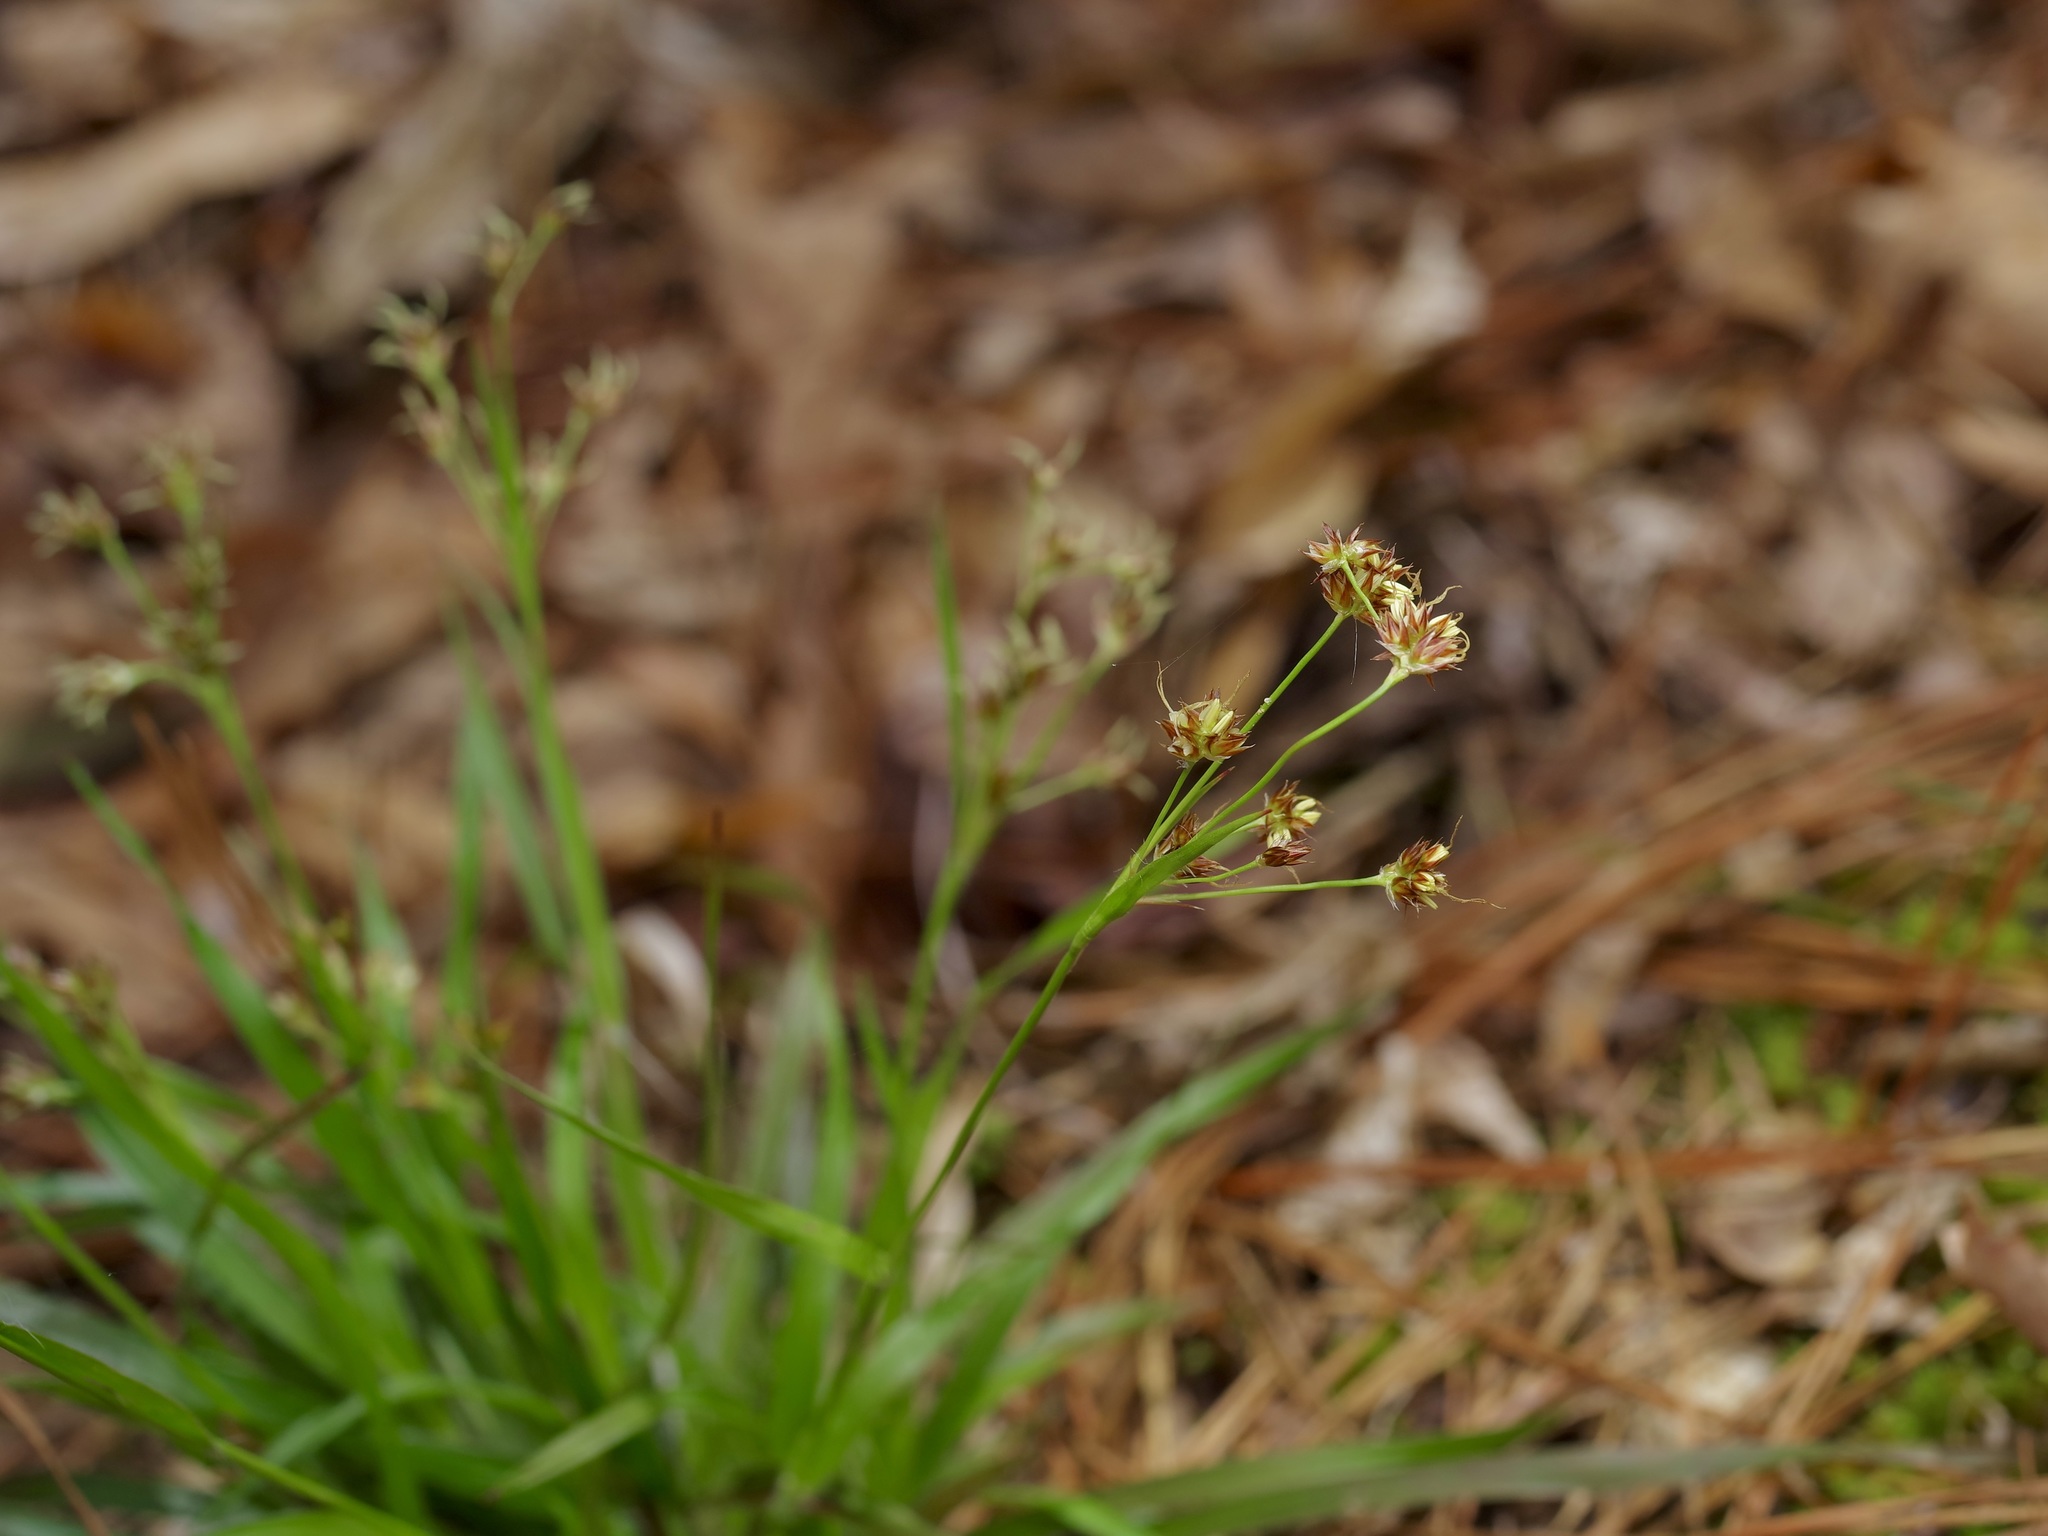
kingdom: Plantae
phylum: Tracheophyta
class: Liliopsida
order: Poales
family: Juncaceae
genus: Luzula
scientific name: Luzula echinata
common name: Hedgehog woodrush
